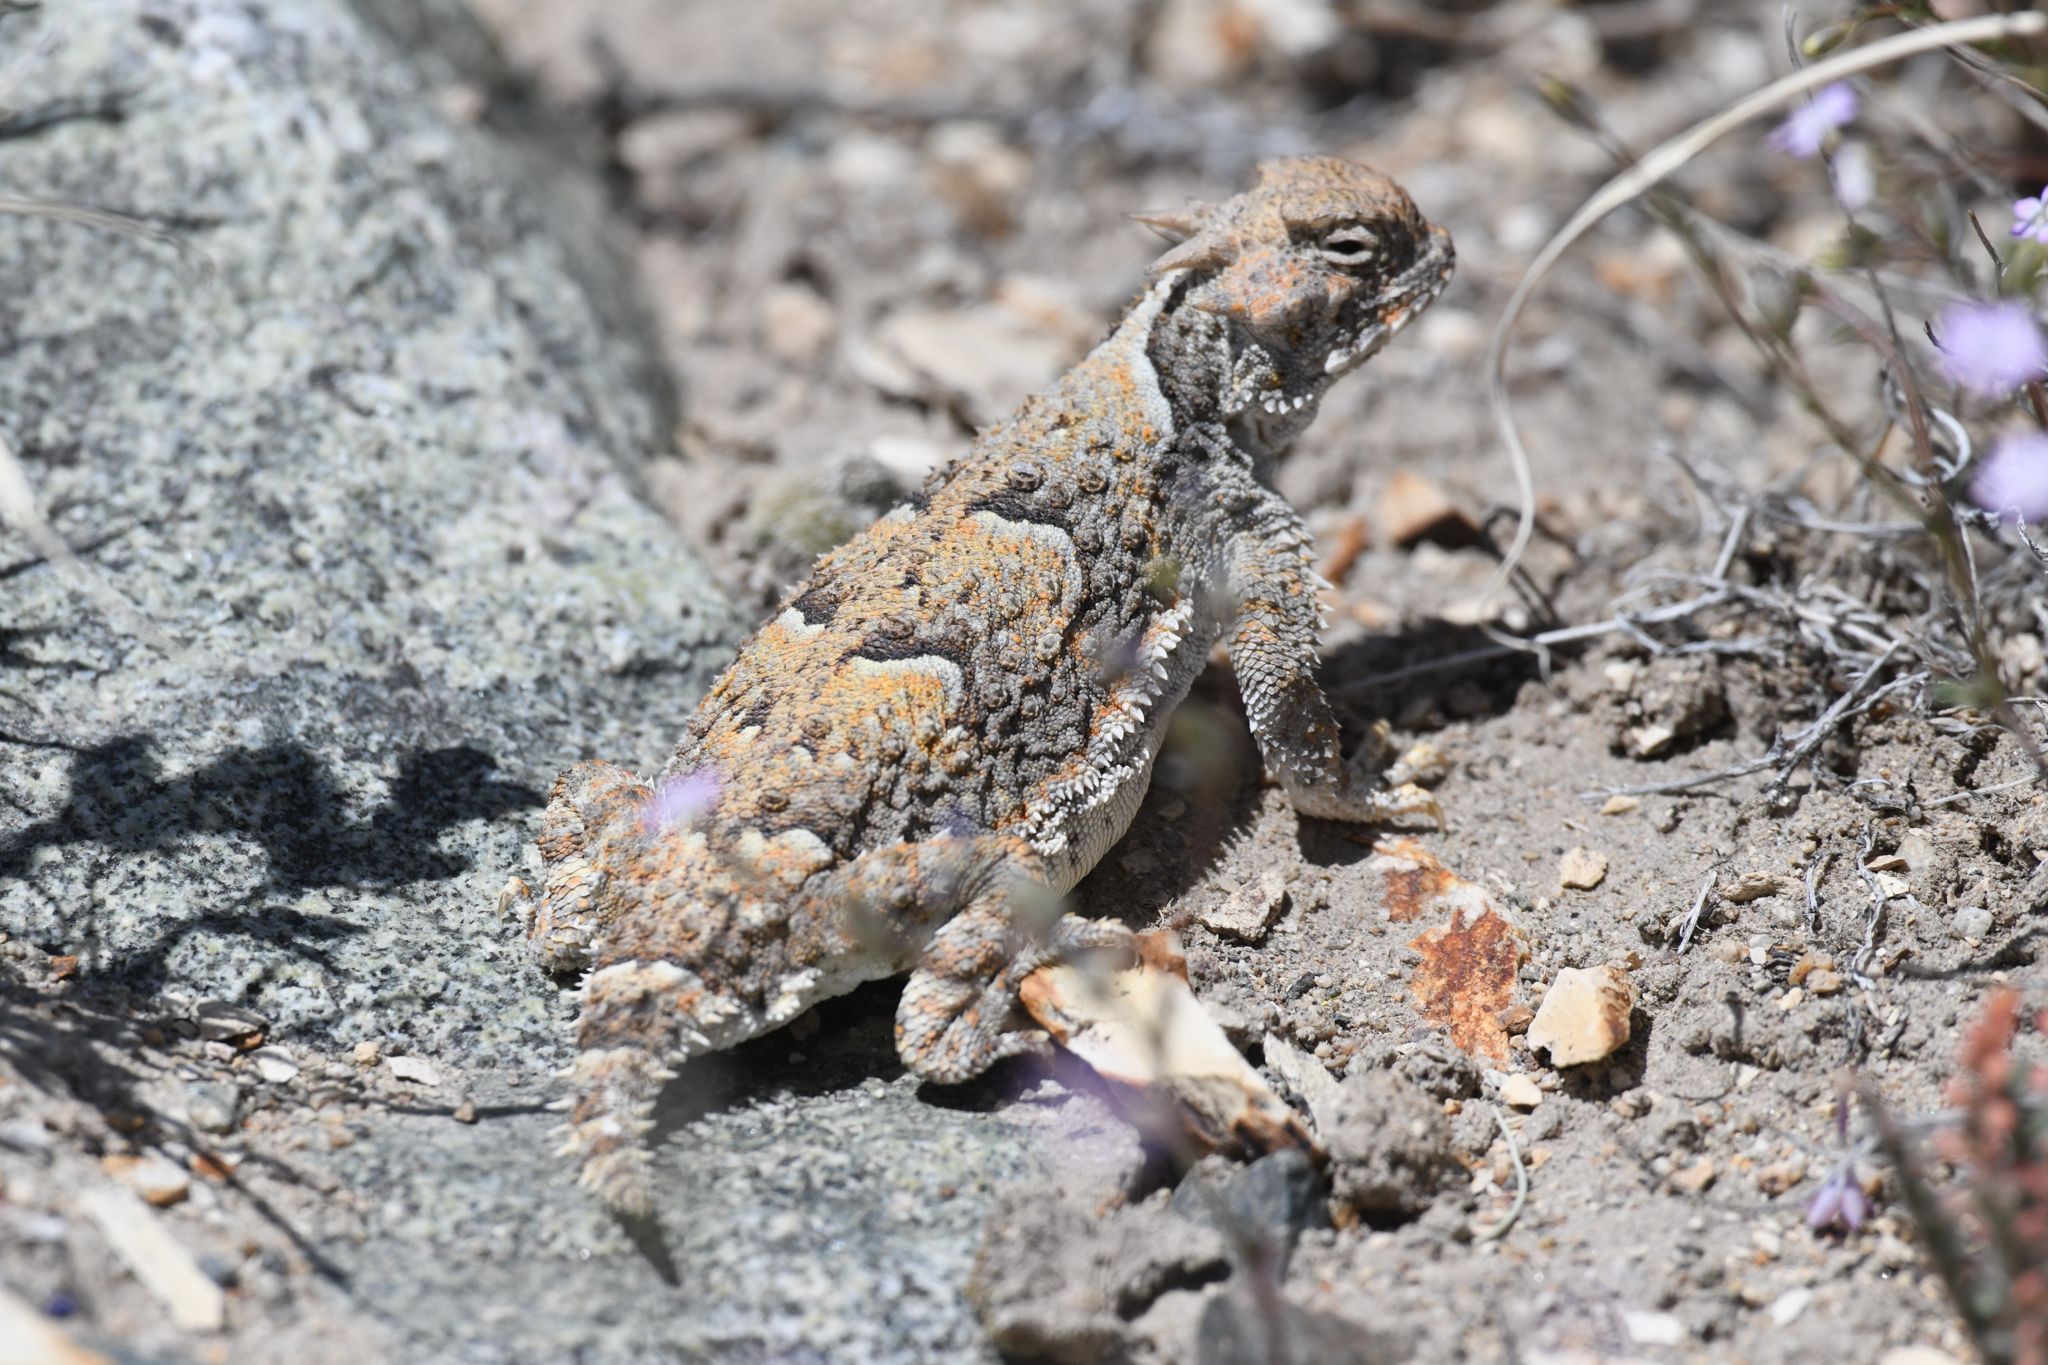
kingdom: Animalia
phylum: Chordata
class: Squamata
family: Phrynosomatidae
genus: Phrynosoma
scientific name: Phrynosoma platyrhinos
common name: Desert horned lizard
